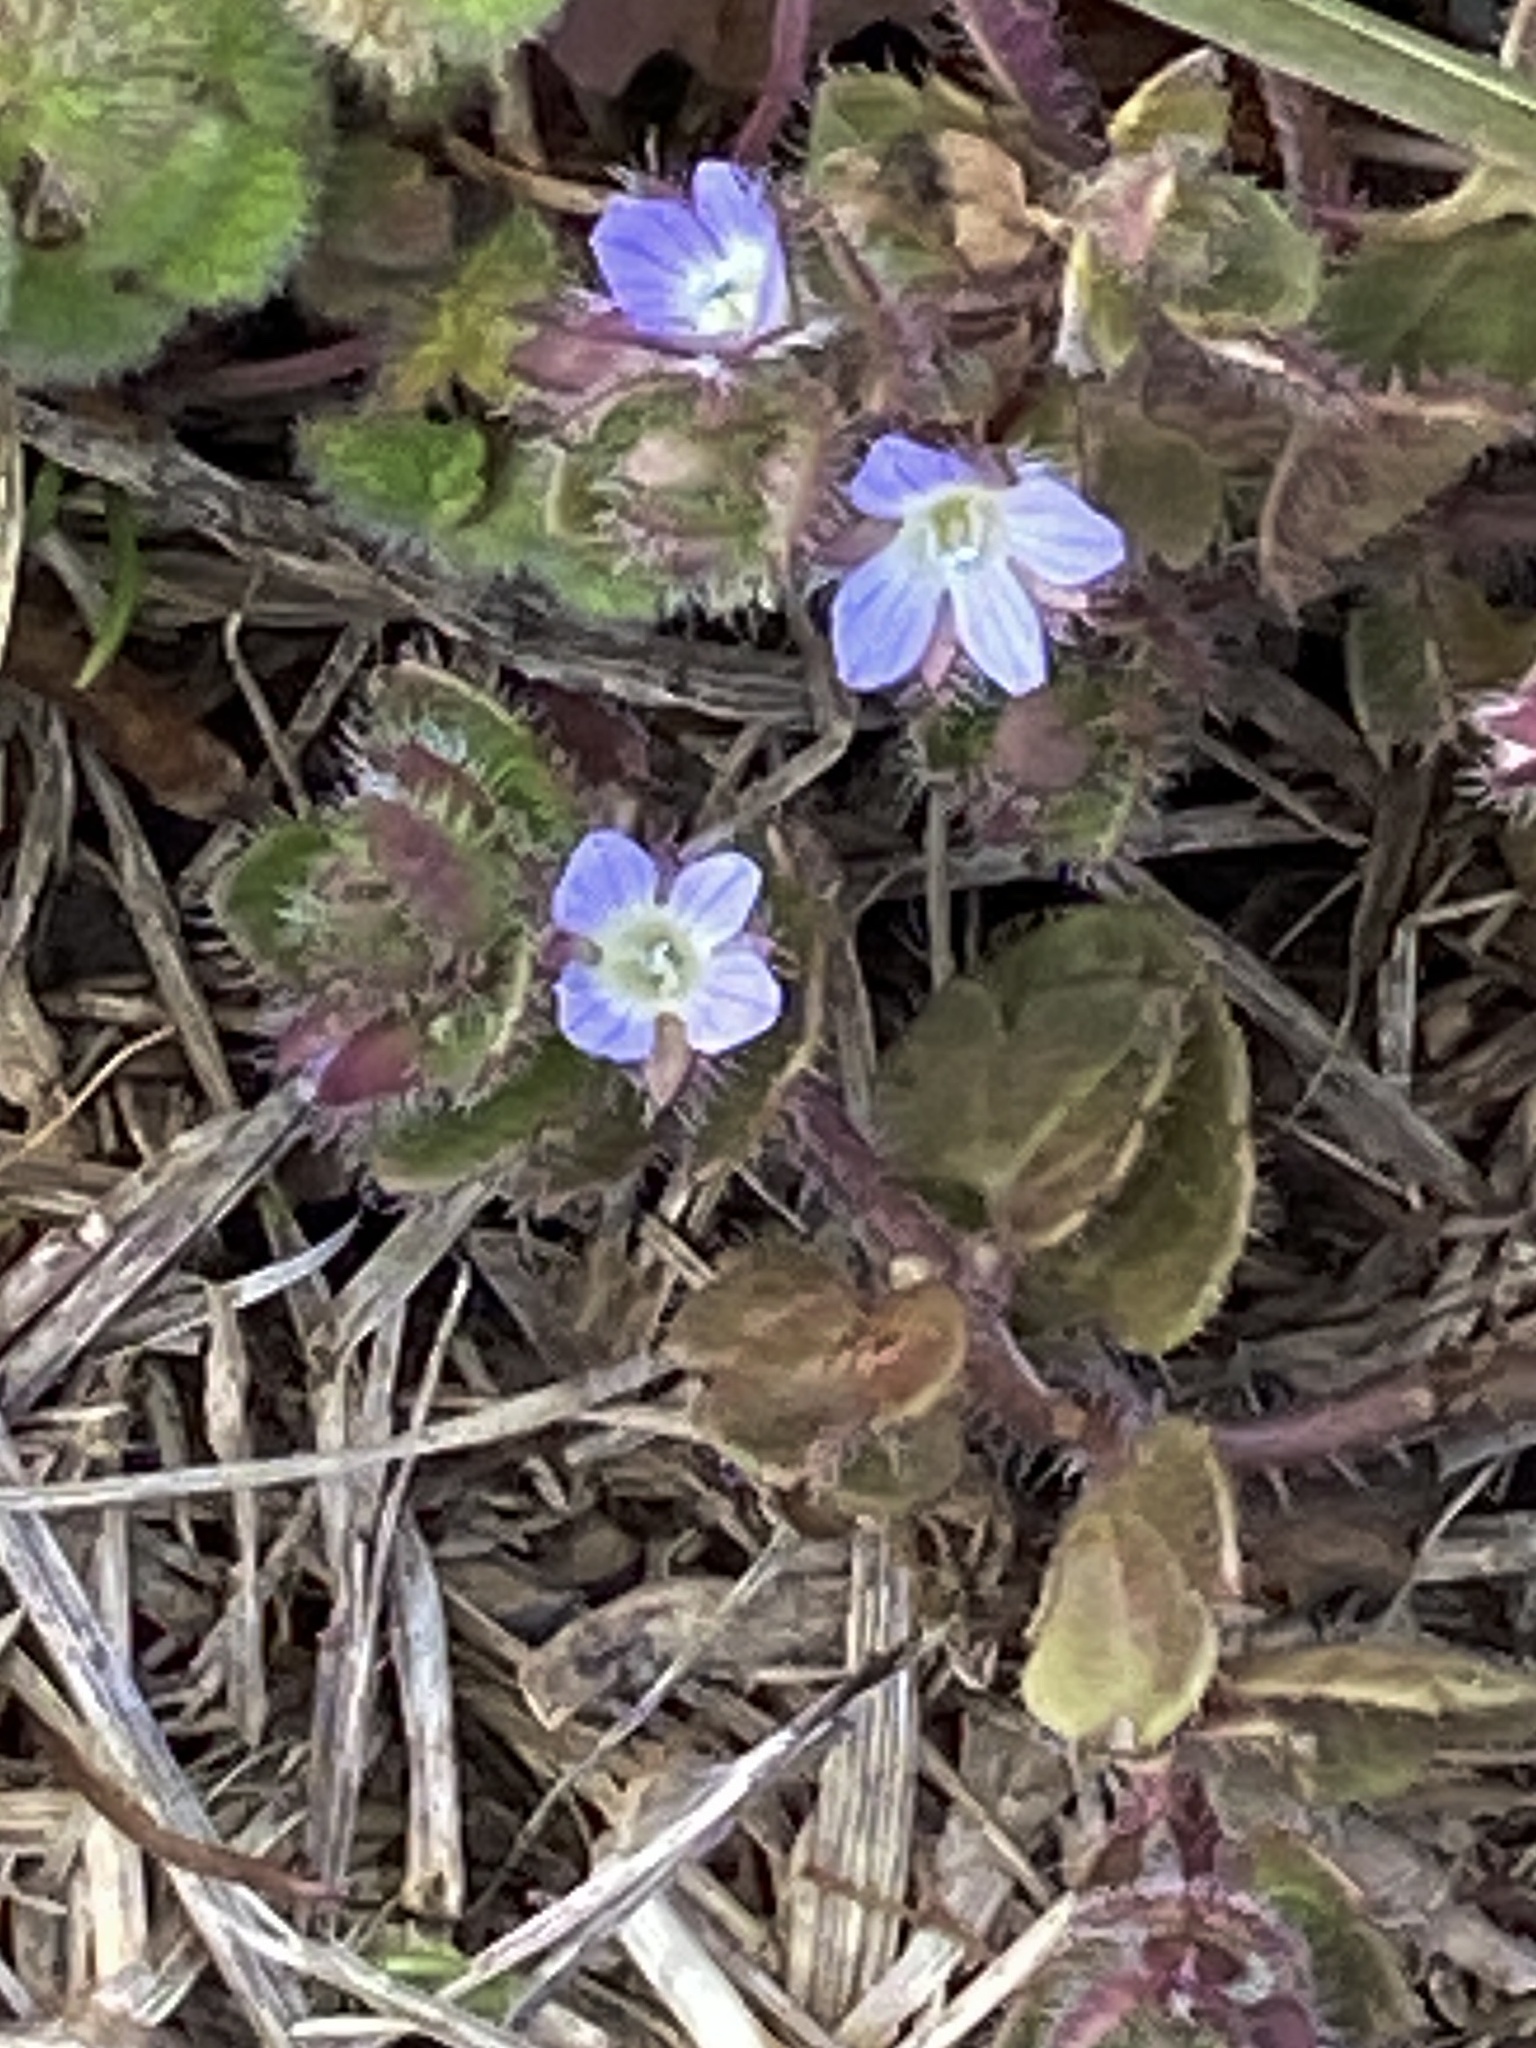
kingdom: Plantae
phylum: Tracheophyta
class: Magnoliopsida
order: Lamiales
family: Plantaginaceae
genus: Veronica
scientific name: Veronica hederifolia
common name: Ivy-leaved speedwell
